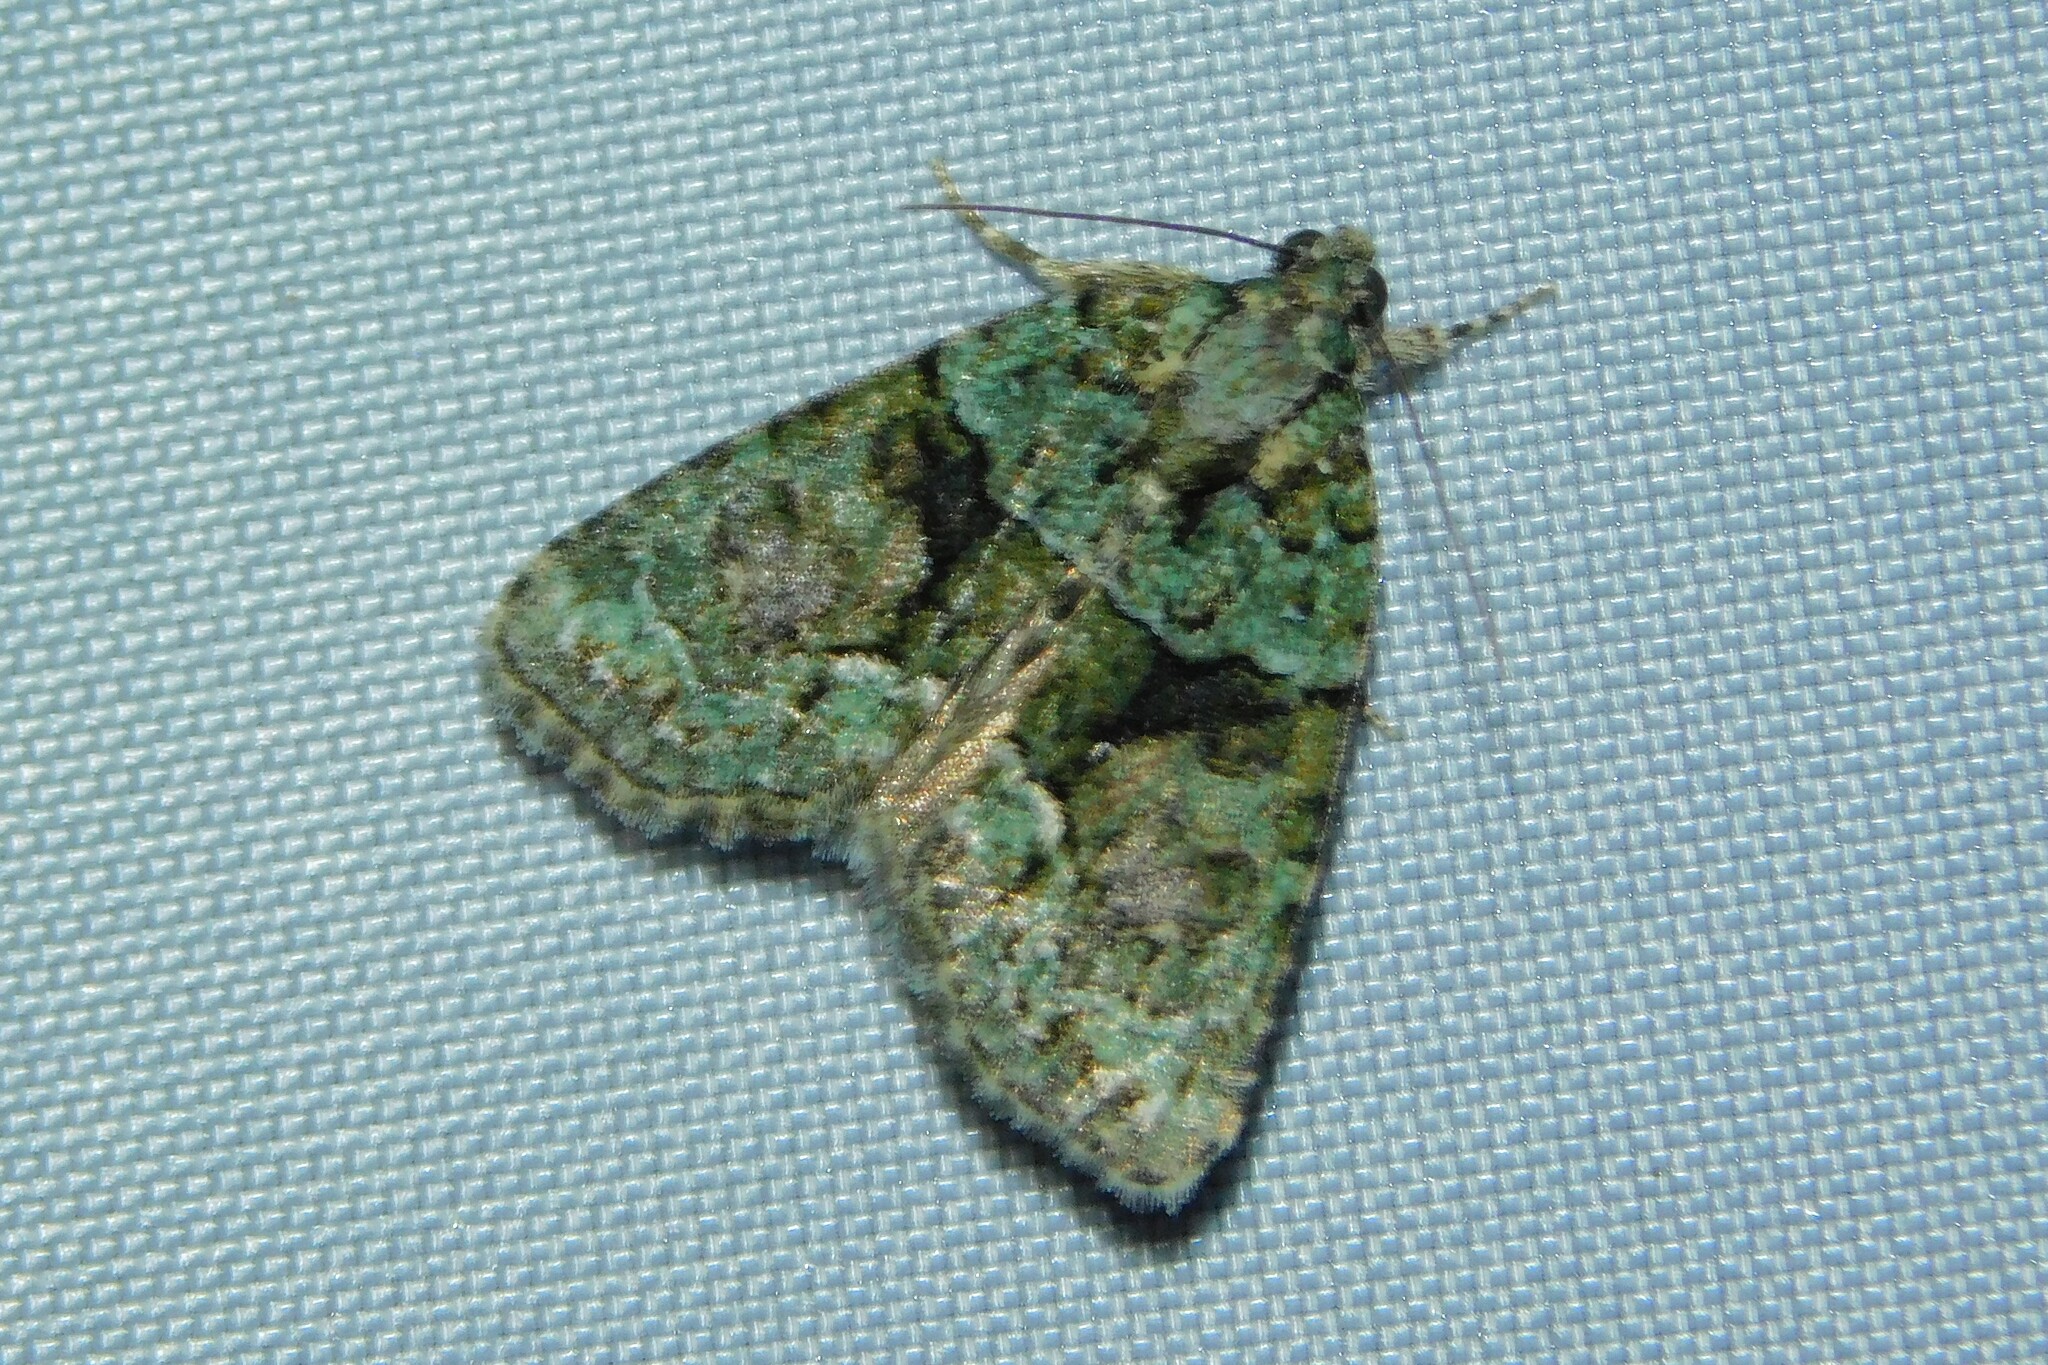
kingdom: Animalia
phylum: Arthropoda
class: Insecta
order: Lepidoptera
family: Noctuidae
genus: Cryphia
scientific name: Cryphia algae
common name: Tree-lichen beauty
